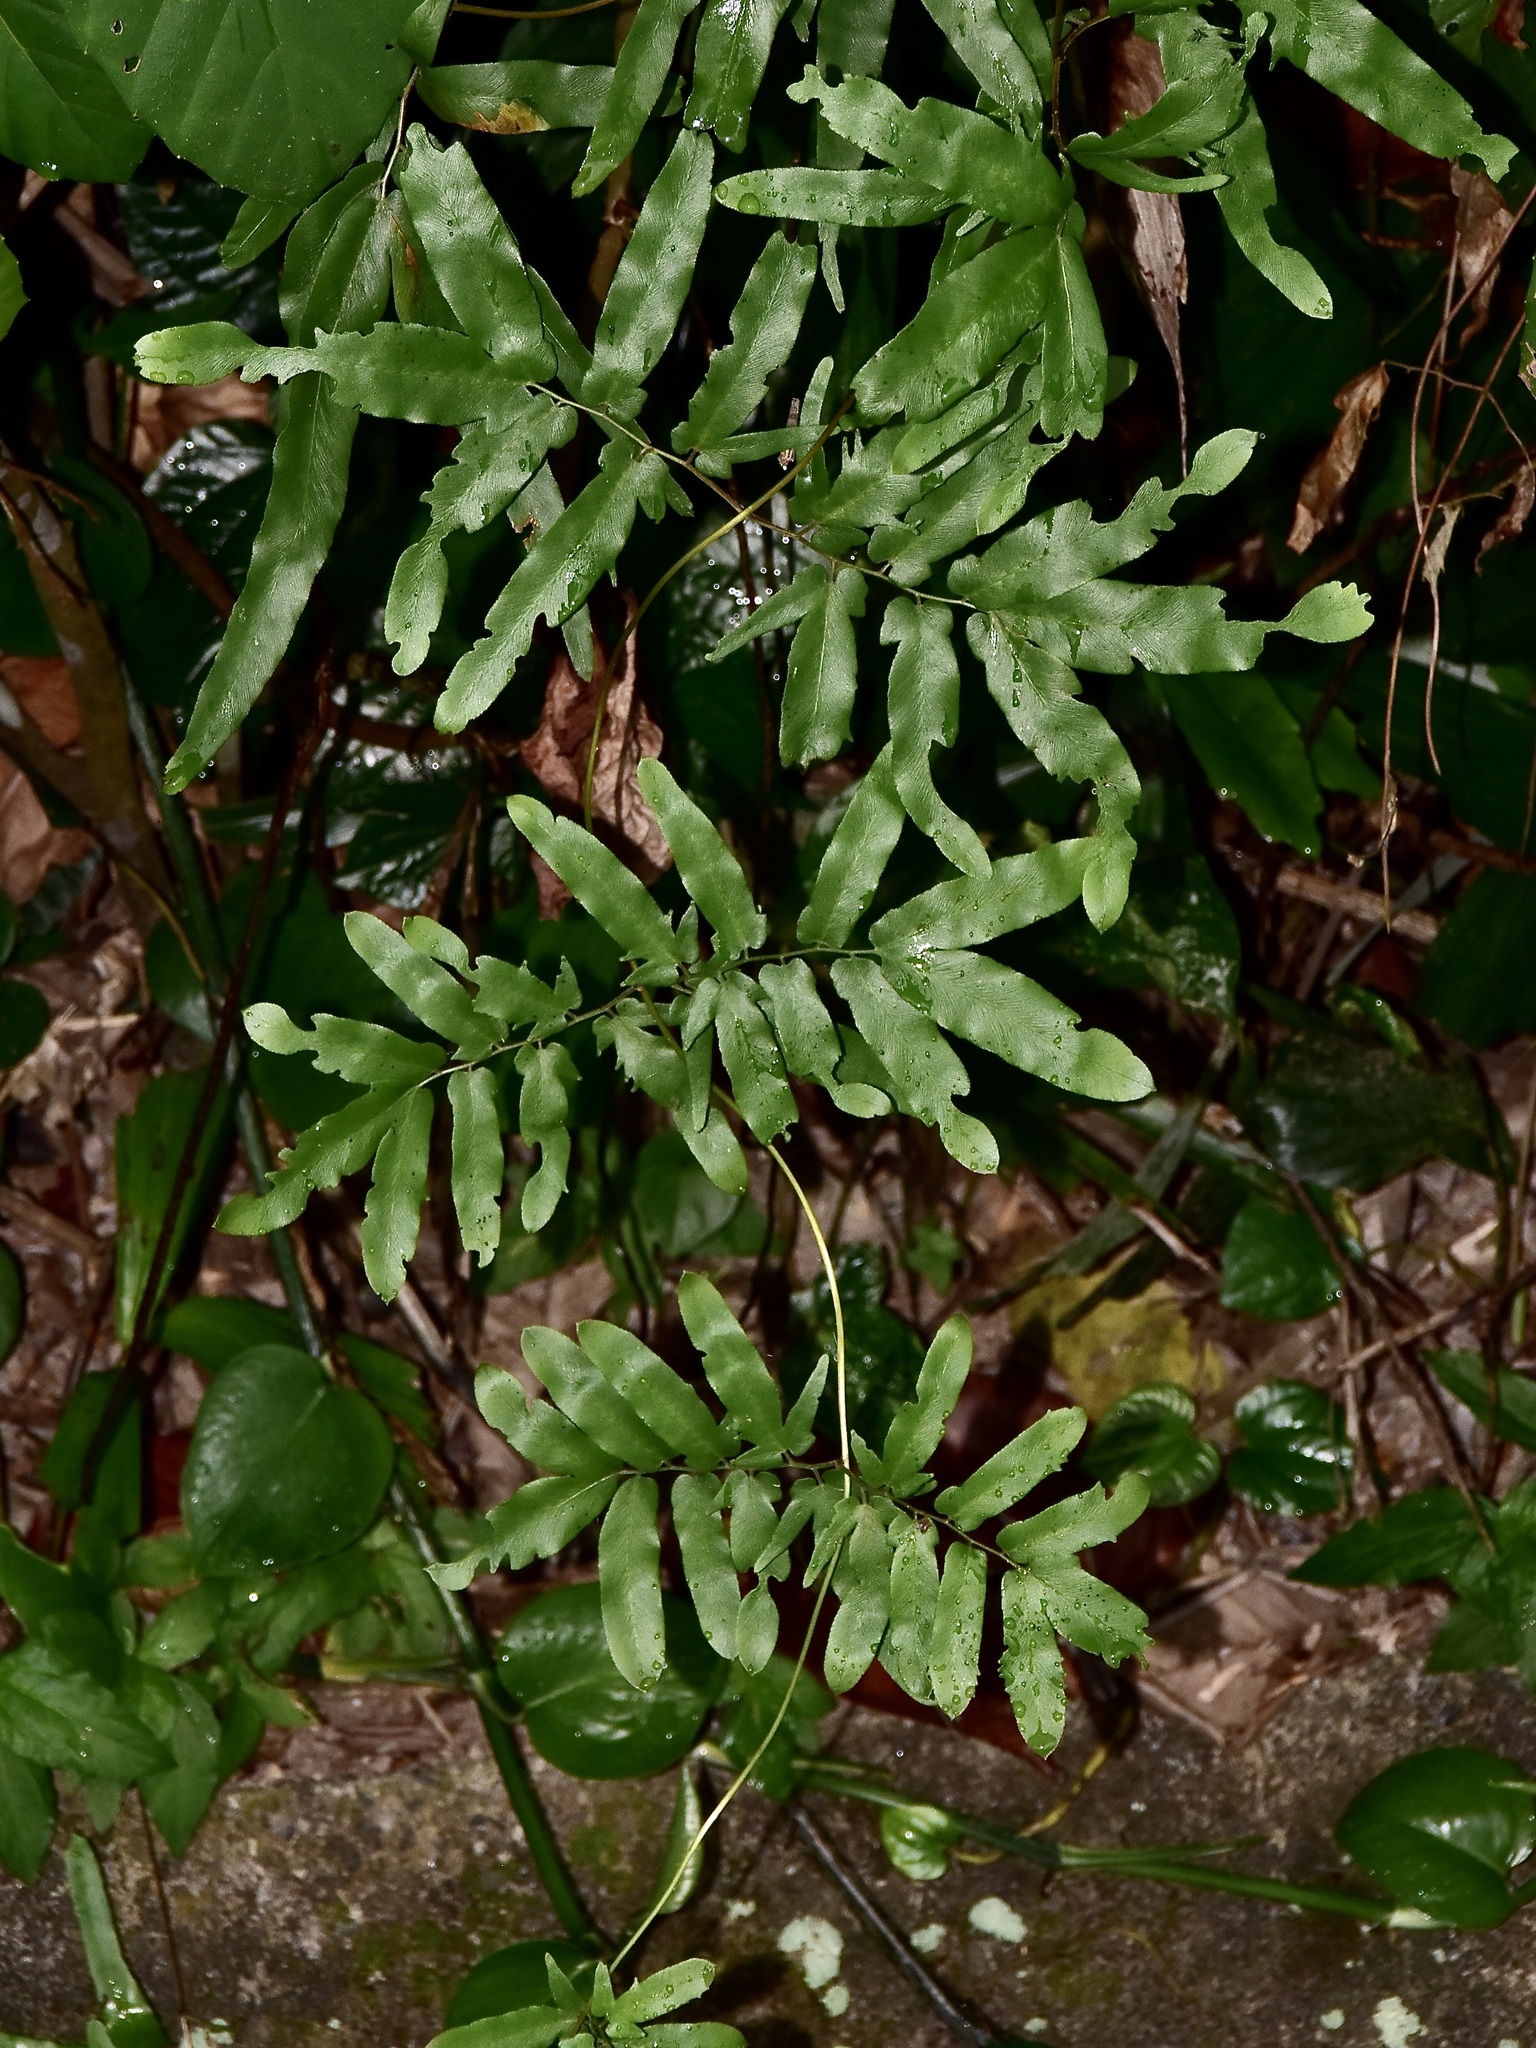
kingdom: Plantae
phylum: Tracheophyta
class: Polypodiopsida
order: Schizaeales
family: Lygodiaceae
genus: Lygodium
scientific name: Lygodium flexuosum
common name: Maidenhair creeper
